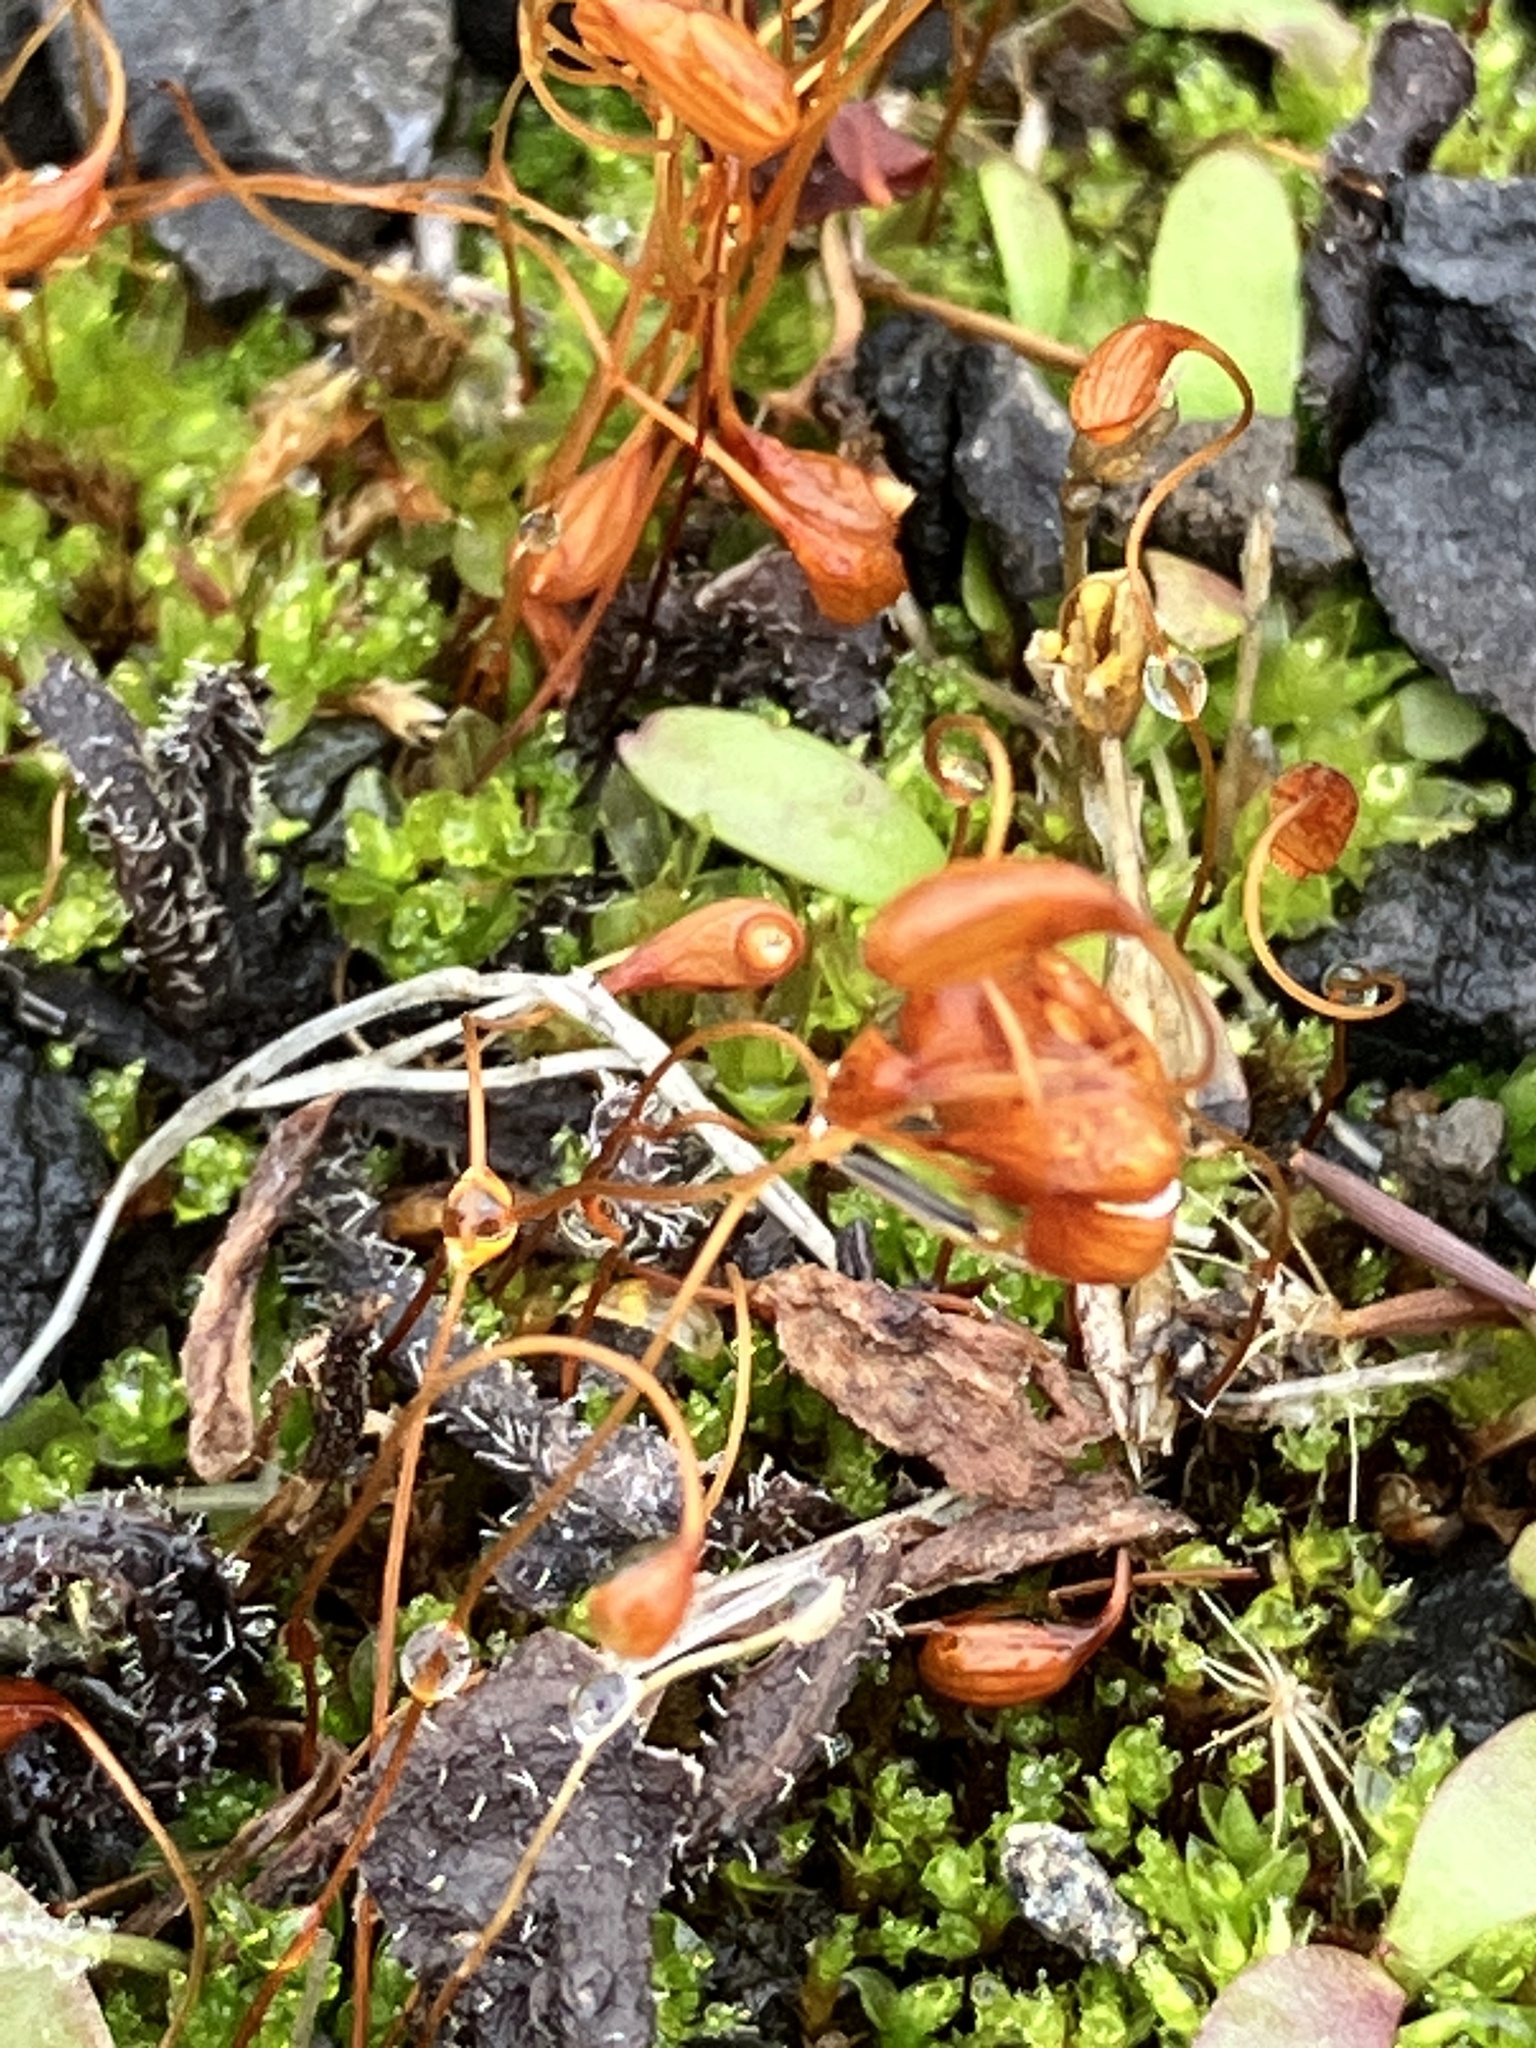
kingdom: Plantae
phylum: Bryophyta
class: Bryopsida
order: Funariales
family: Funariaceae
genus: Funaria
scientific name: Funaria hygrometrica
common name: Common cord moss
